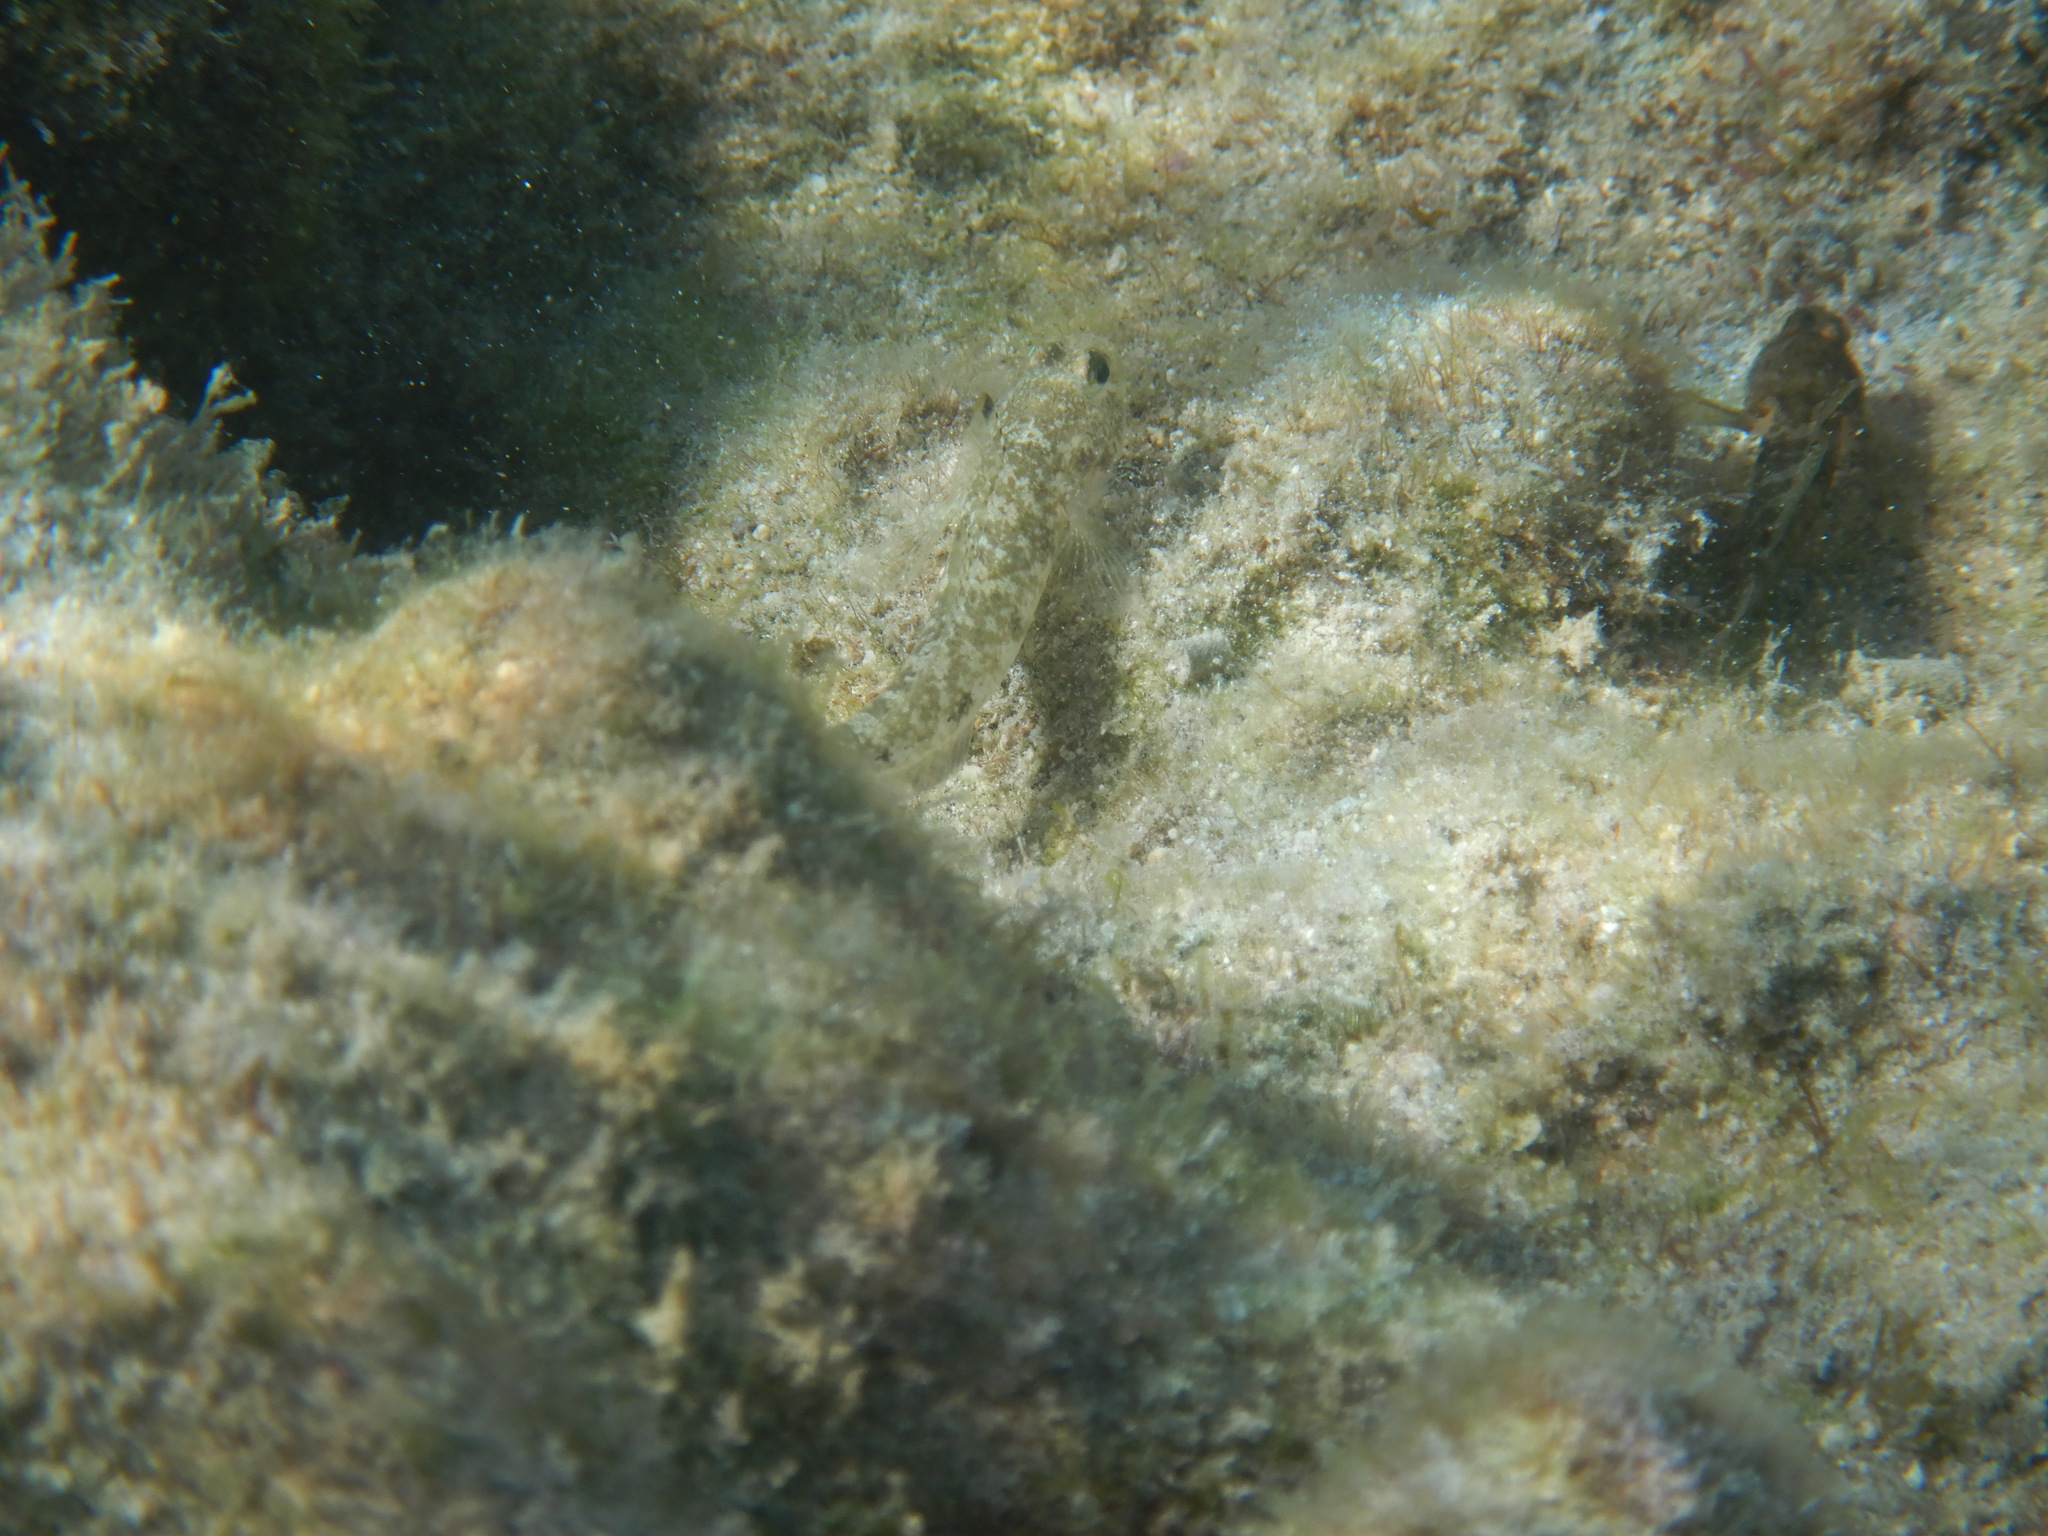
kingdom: Animalia
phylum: Chordata
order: Perciformes
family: Gobiidae
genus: Gobius
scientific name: Gobius niger
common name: Black goby
